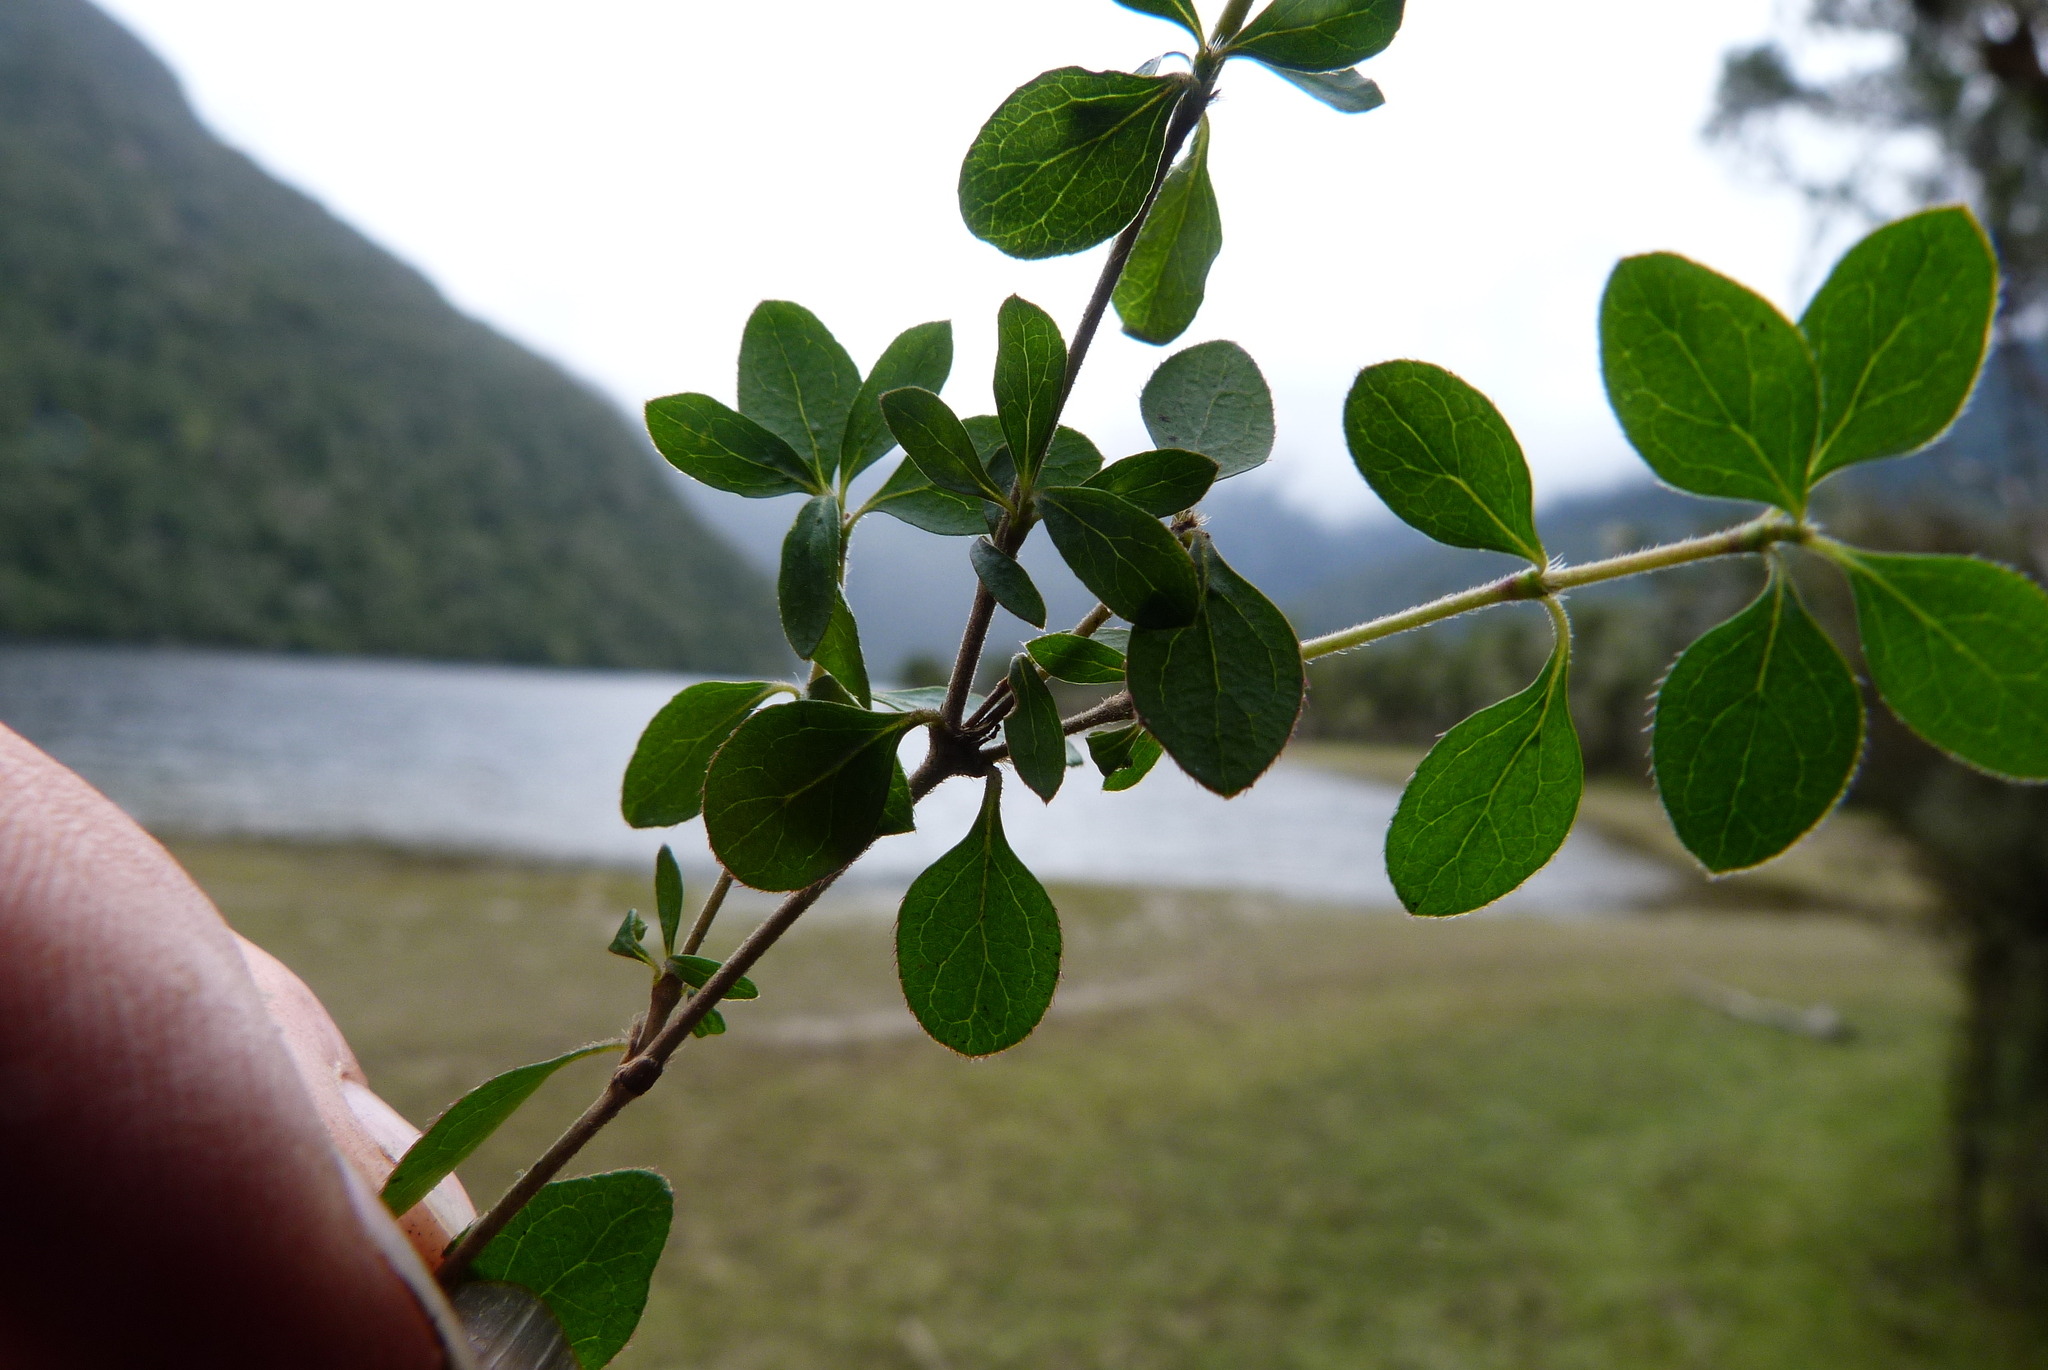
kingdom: Plantae
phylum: Tracheophyta
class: Magnoliopsida
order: Gentianales
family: Rubiaceae
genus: Coprosma
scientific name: Coprosma ciliata
